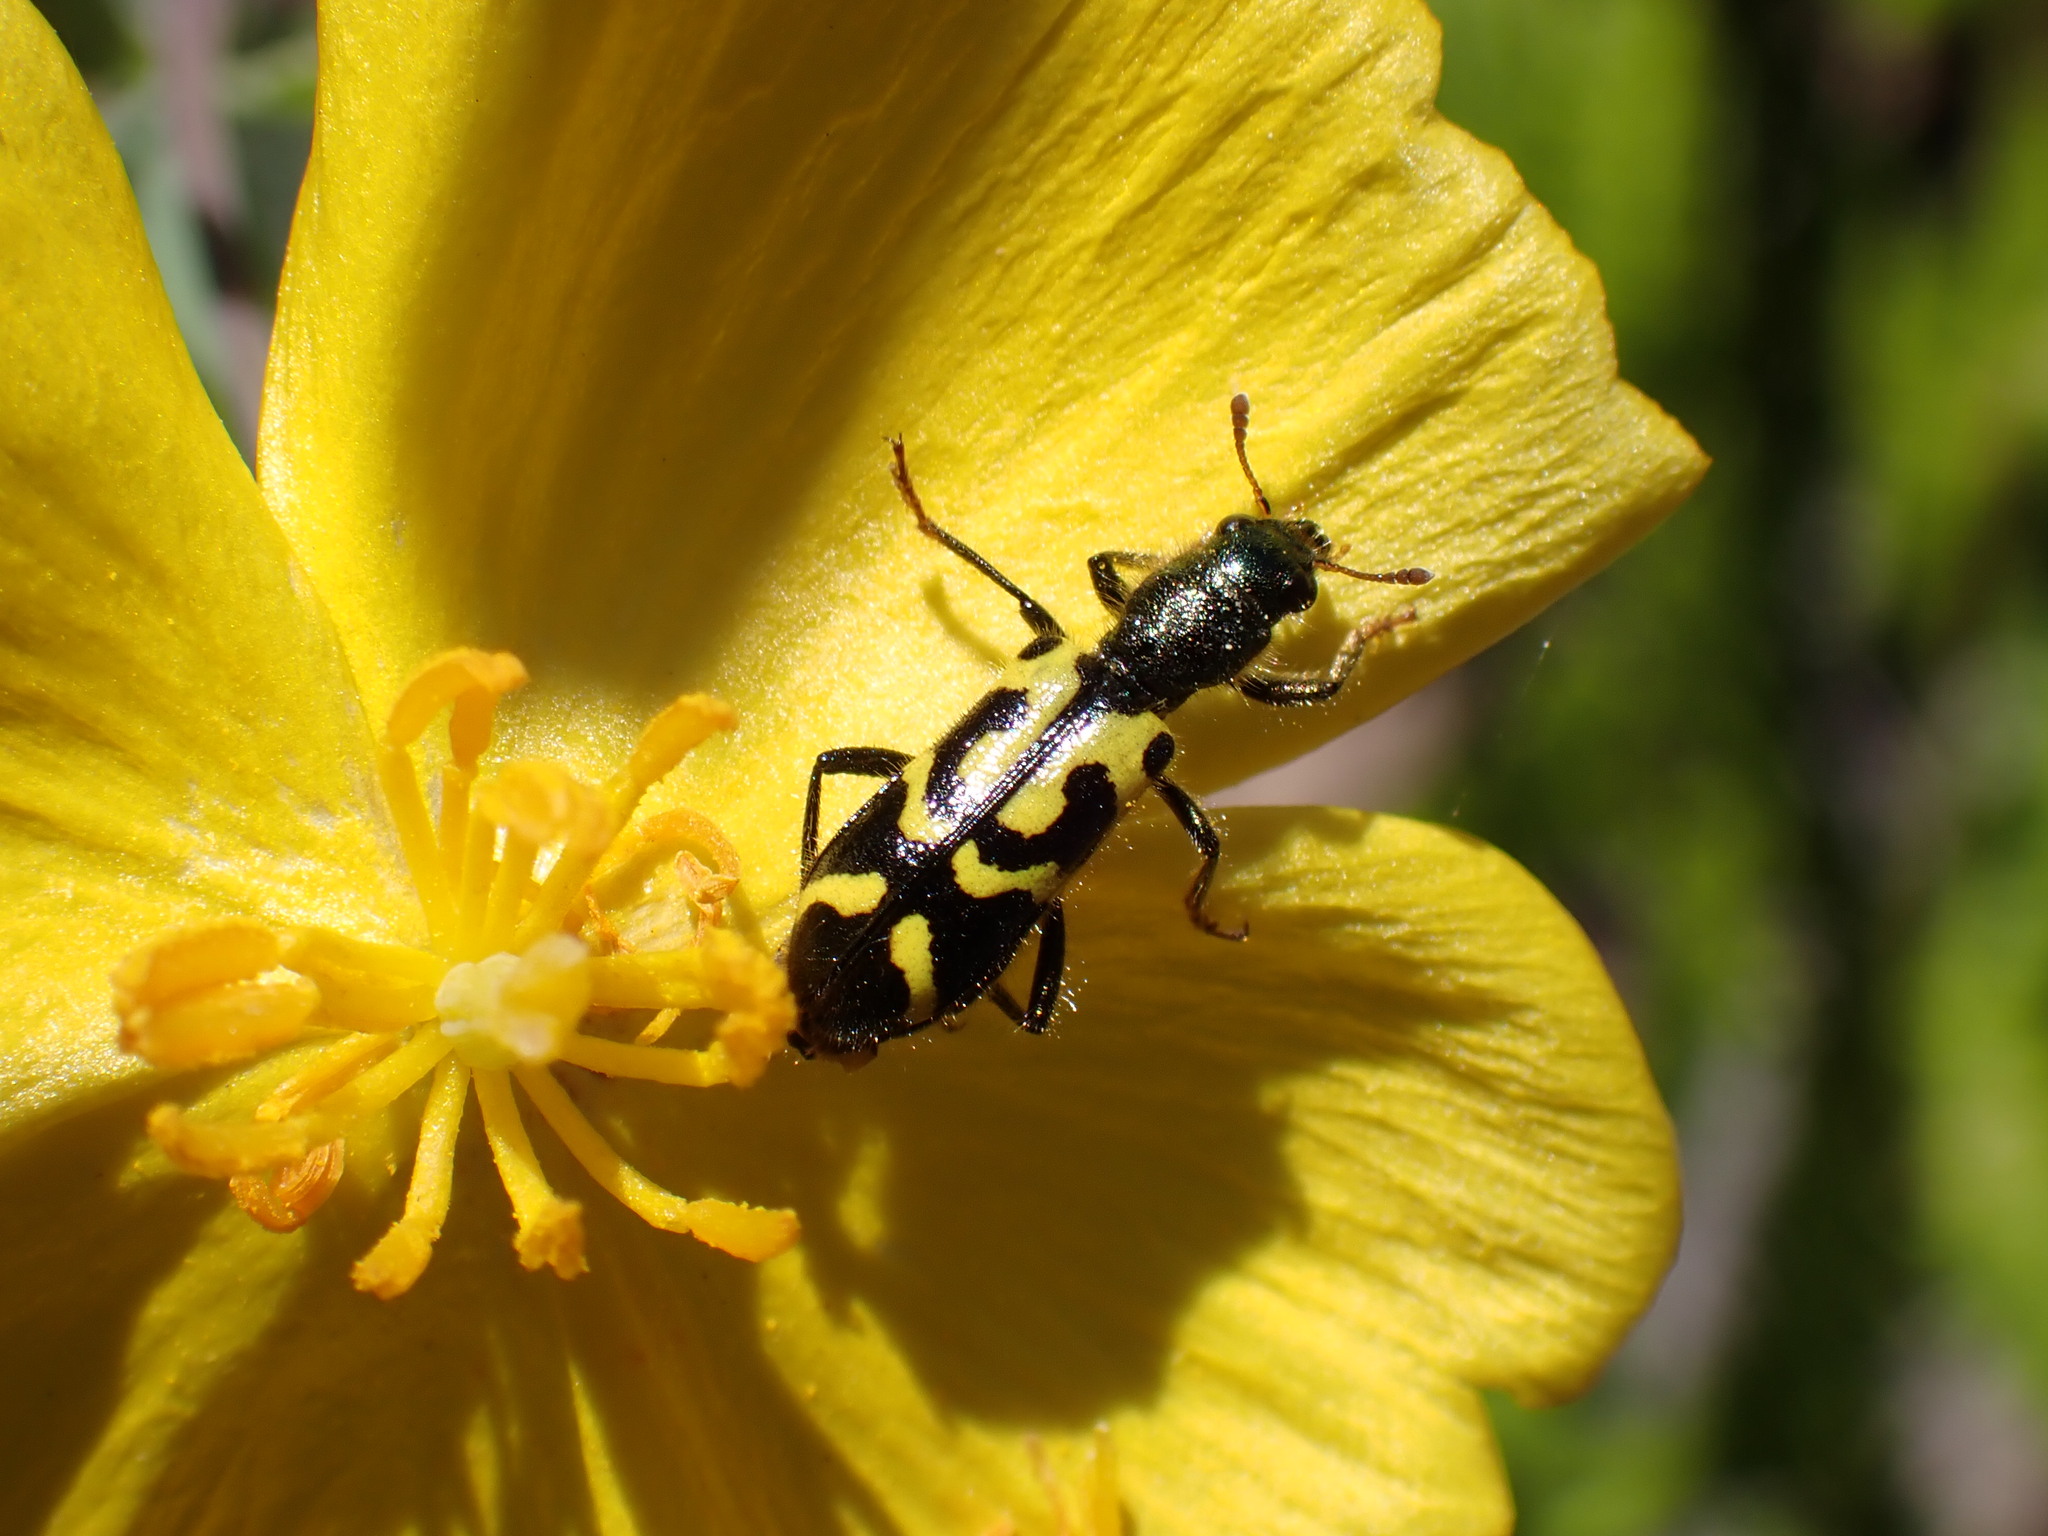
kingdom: Animalia
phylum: Arthropoda
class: Insecta
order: Coleoptera
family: Cleridae
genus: Trichodes
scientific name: Trichodes ornatus
